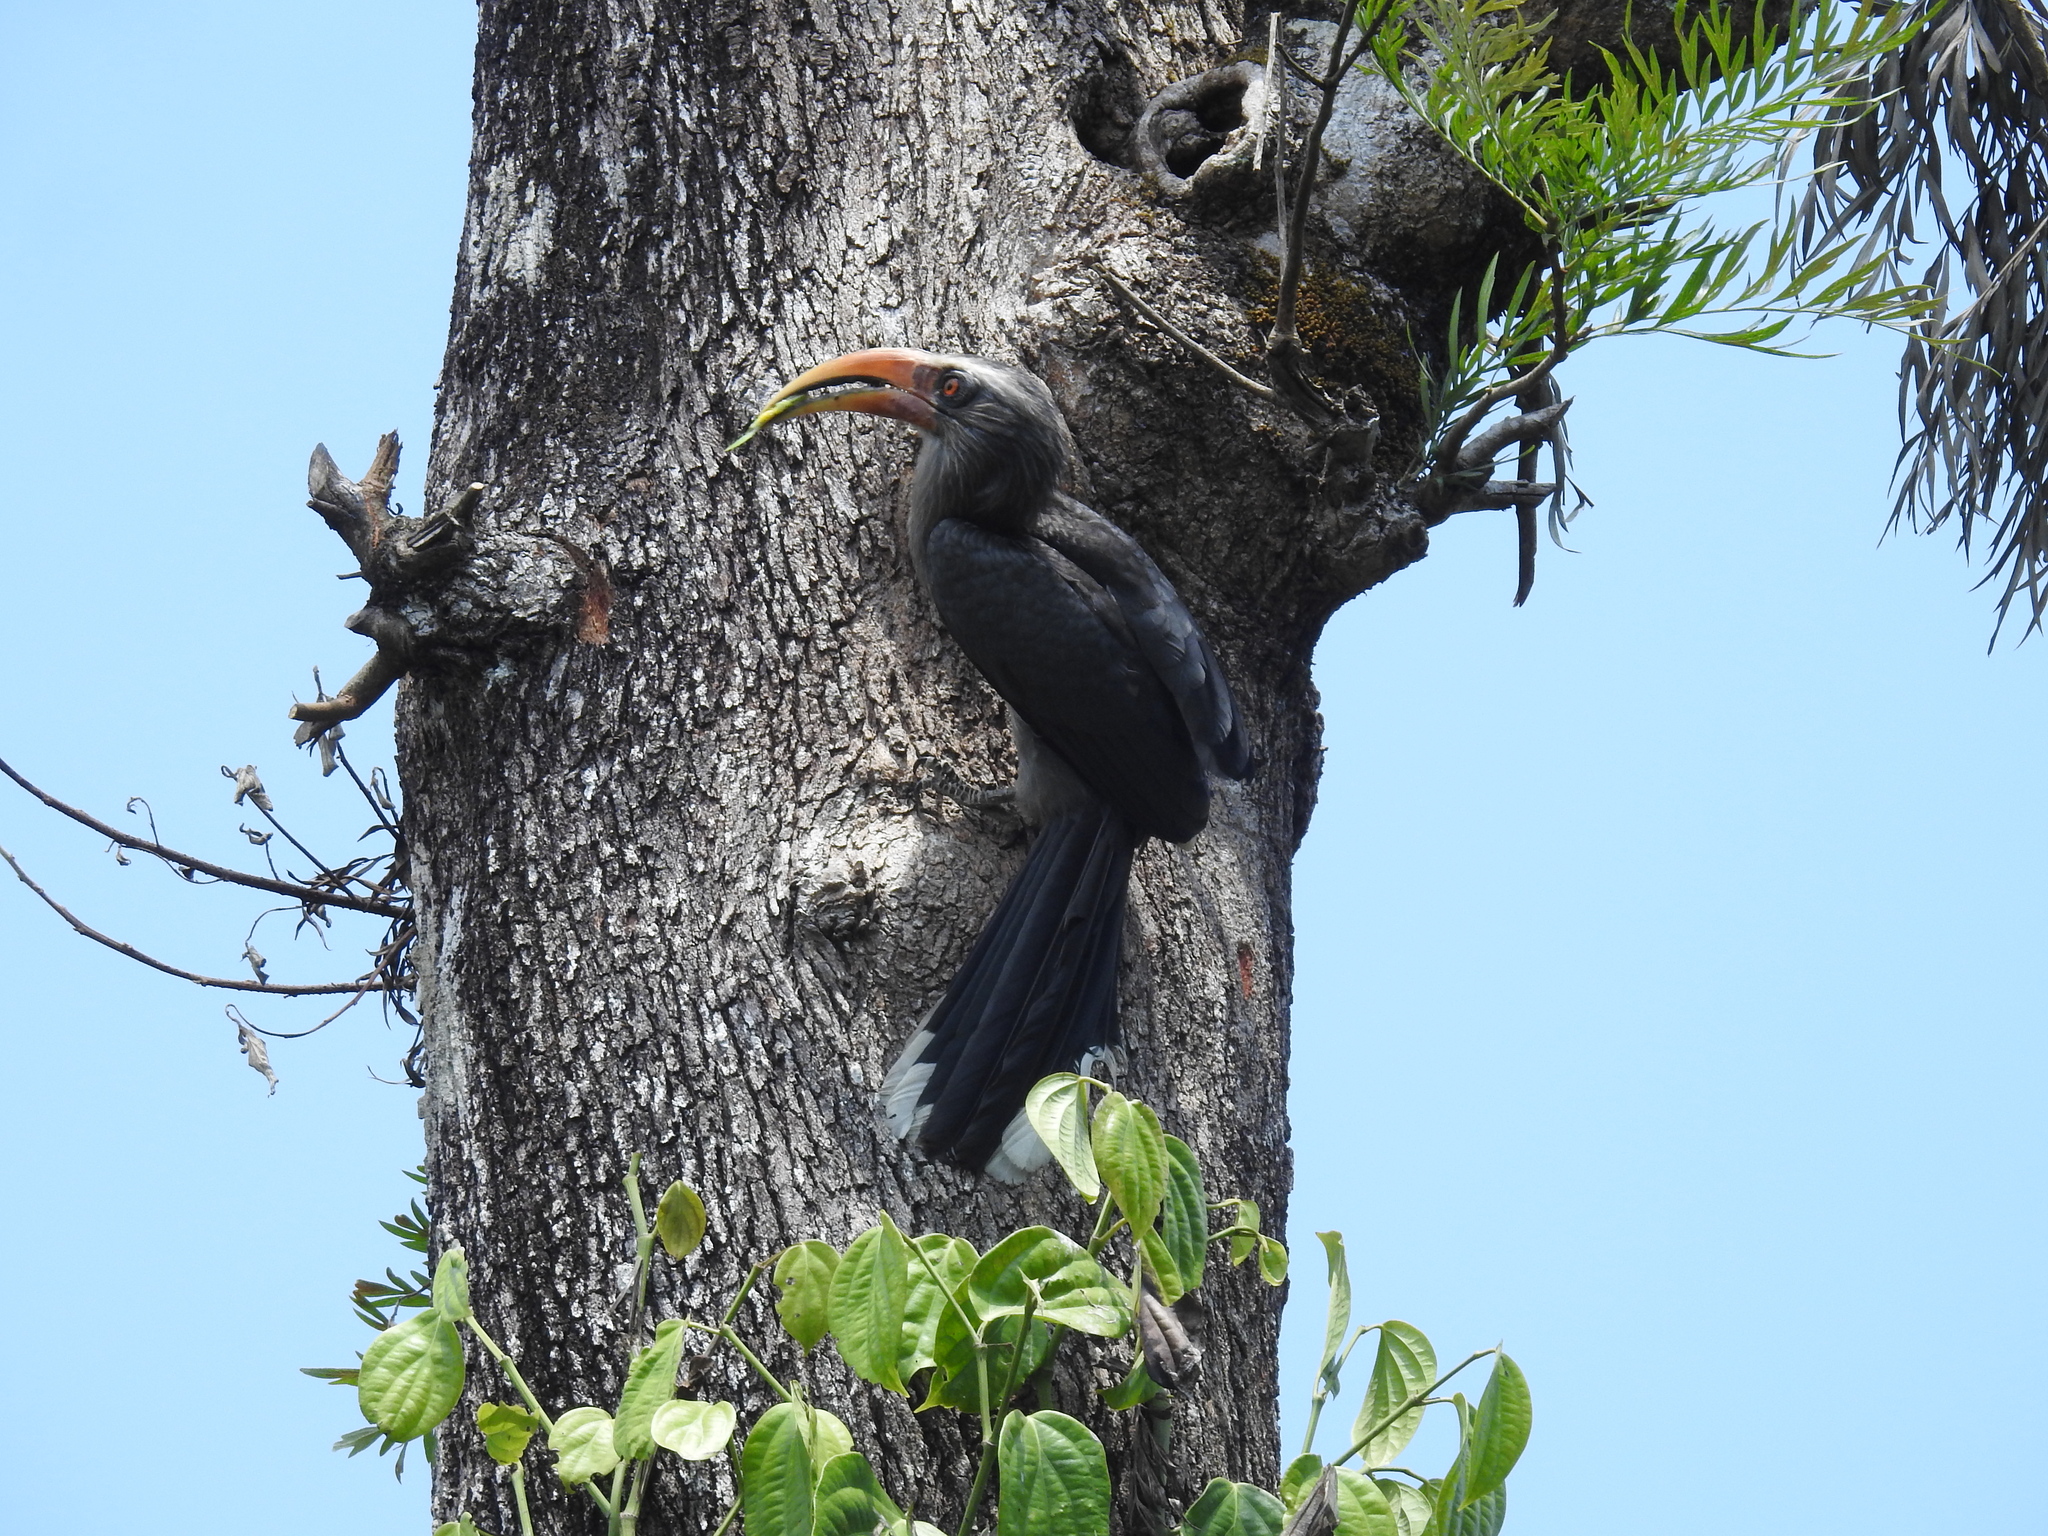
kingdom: Animalia
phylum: Chordata
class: Aves
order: Bucerotiformes
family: Bucerotidae
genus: Ocyceros
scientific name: Ocyceros griseus
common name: Malabar grey hornbill
